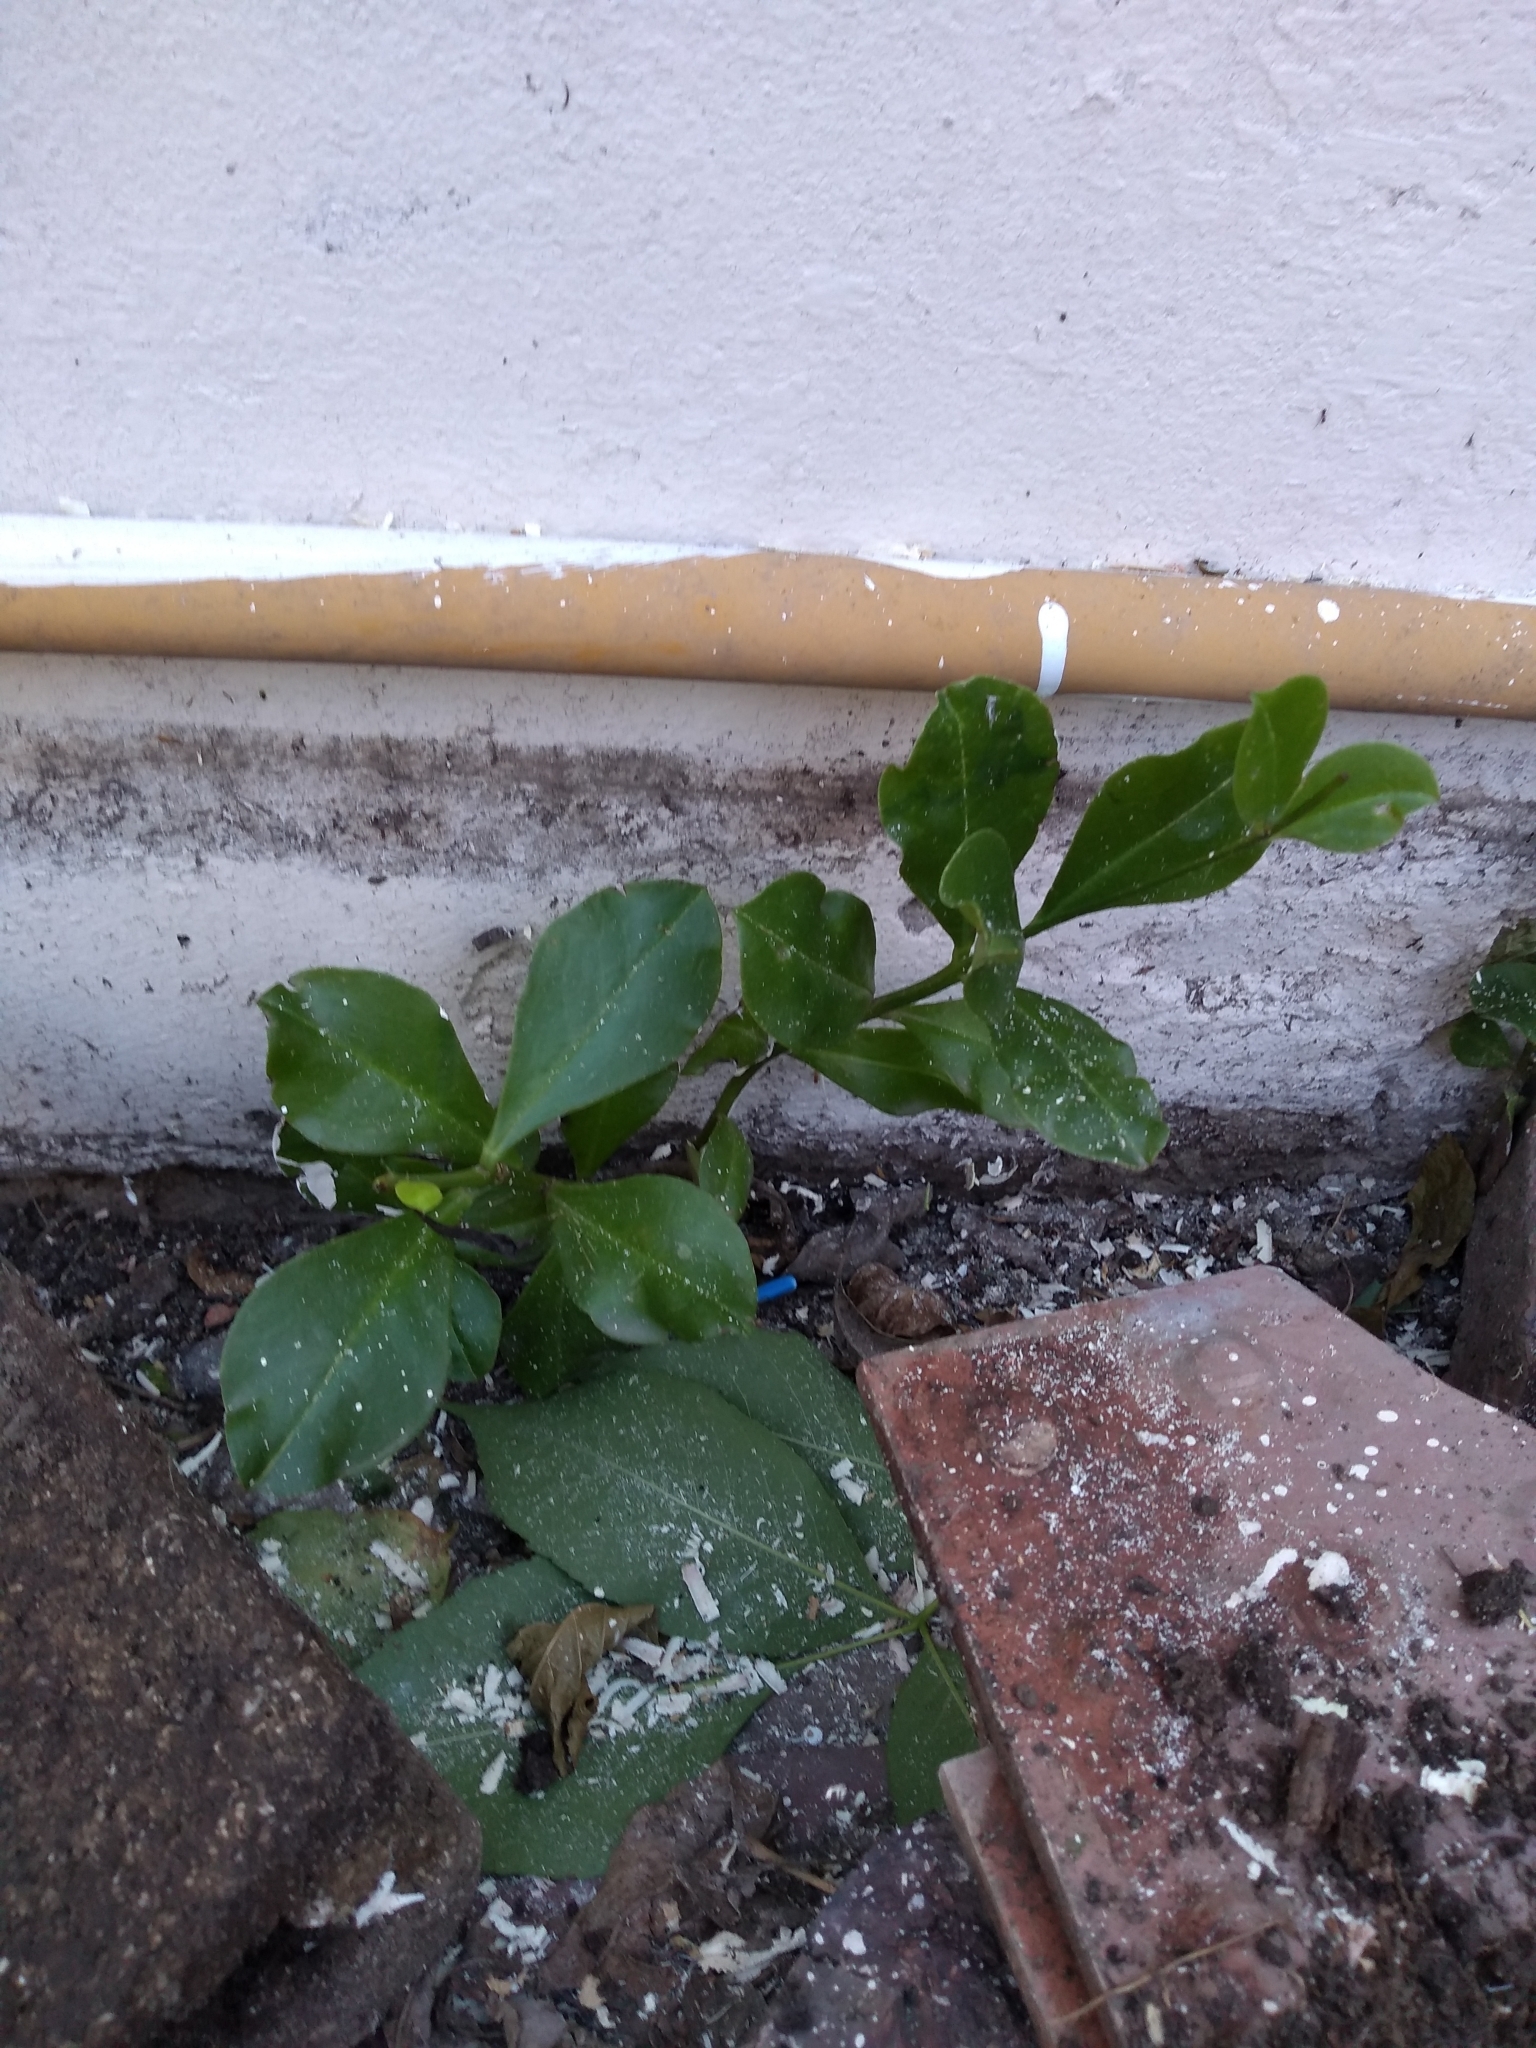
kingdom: Plantae
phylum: Tracheophyta
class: Magnoliopsida
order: Caryophyllales
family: Talinaceae
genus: Talinum
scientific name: Talinum paniculatum
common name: Jewels of opar
